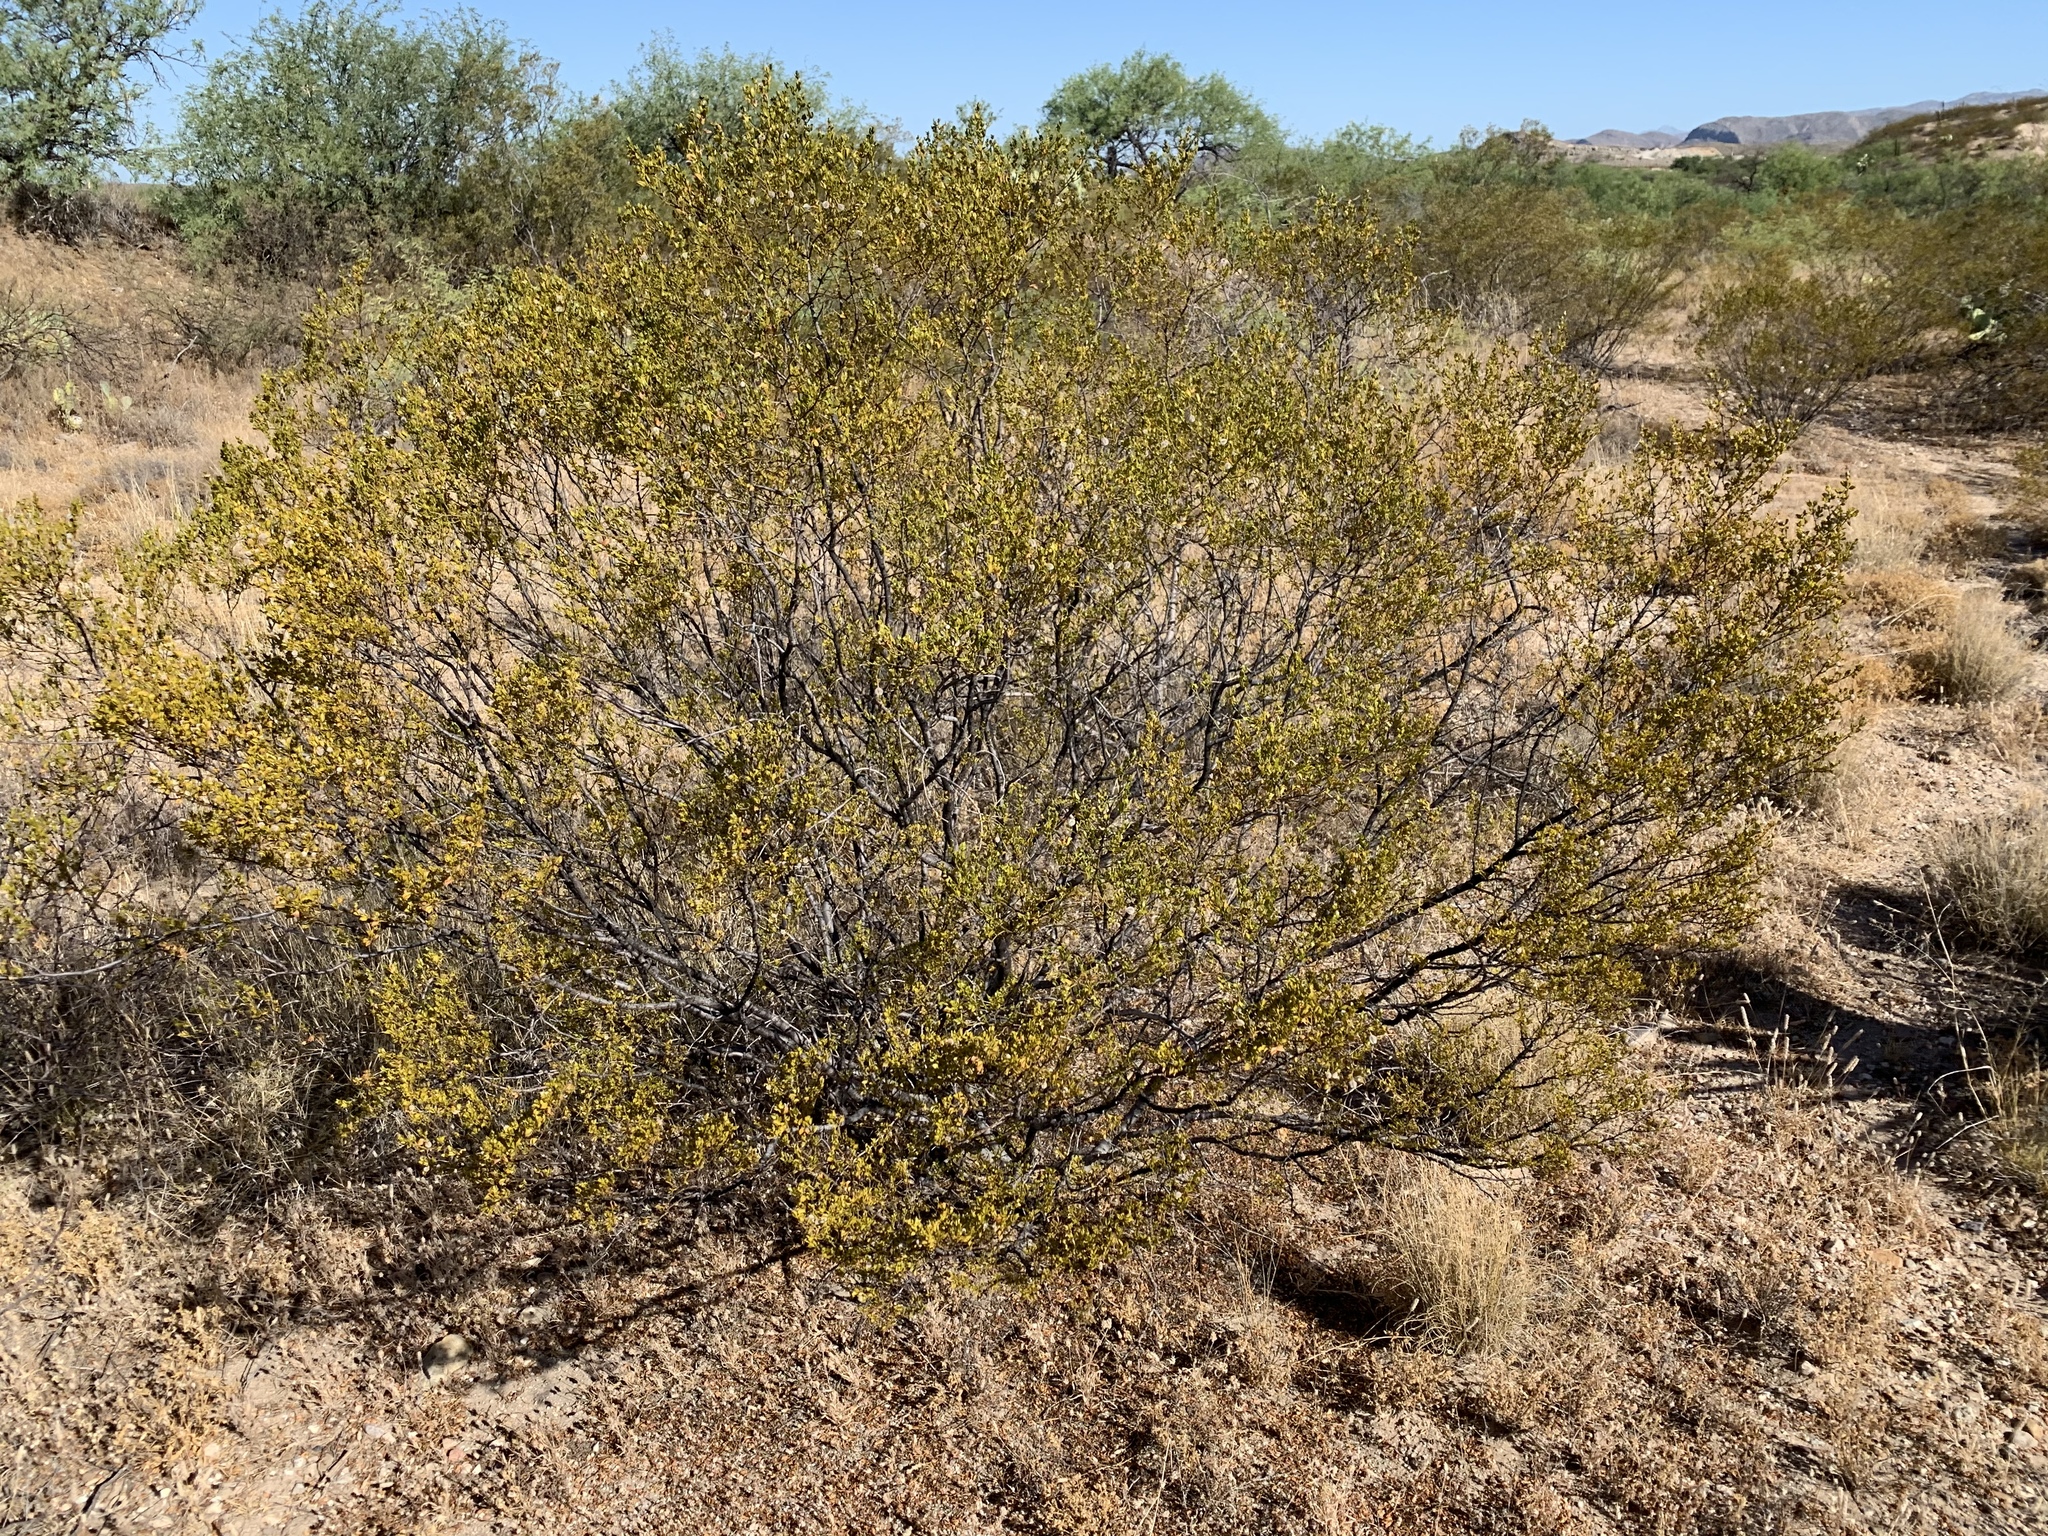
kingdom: Plantae
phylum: Tracheophyta
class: Magnoliopsida
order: Zygophyllales
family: Zygophyllaceae
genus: Larrea
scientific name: Larrea tridentata
